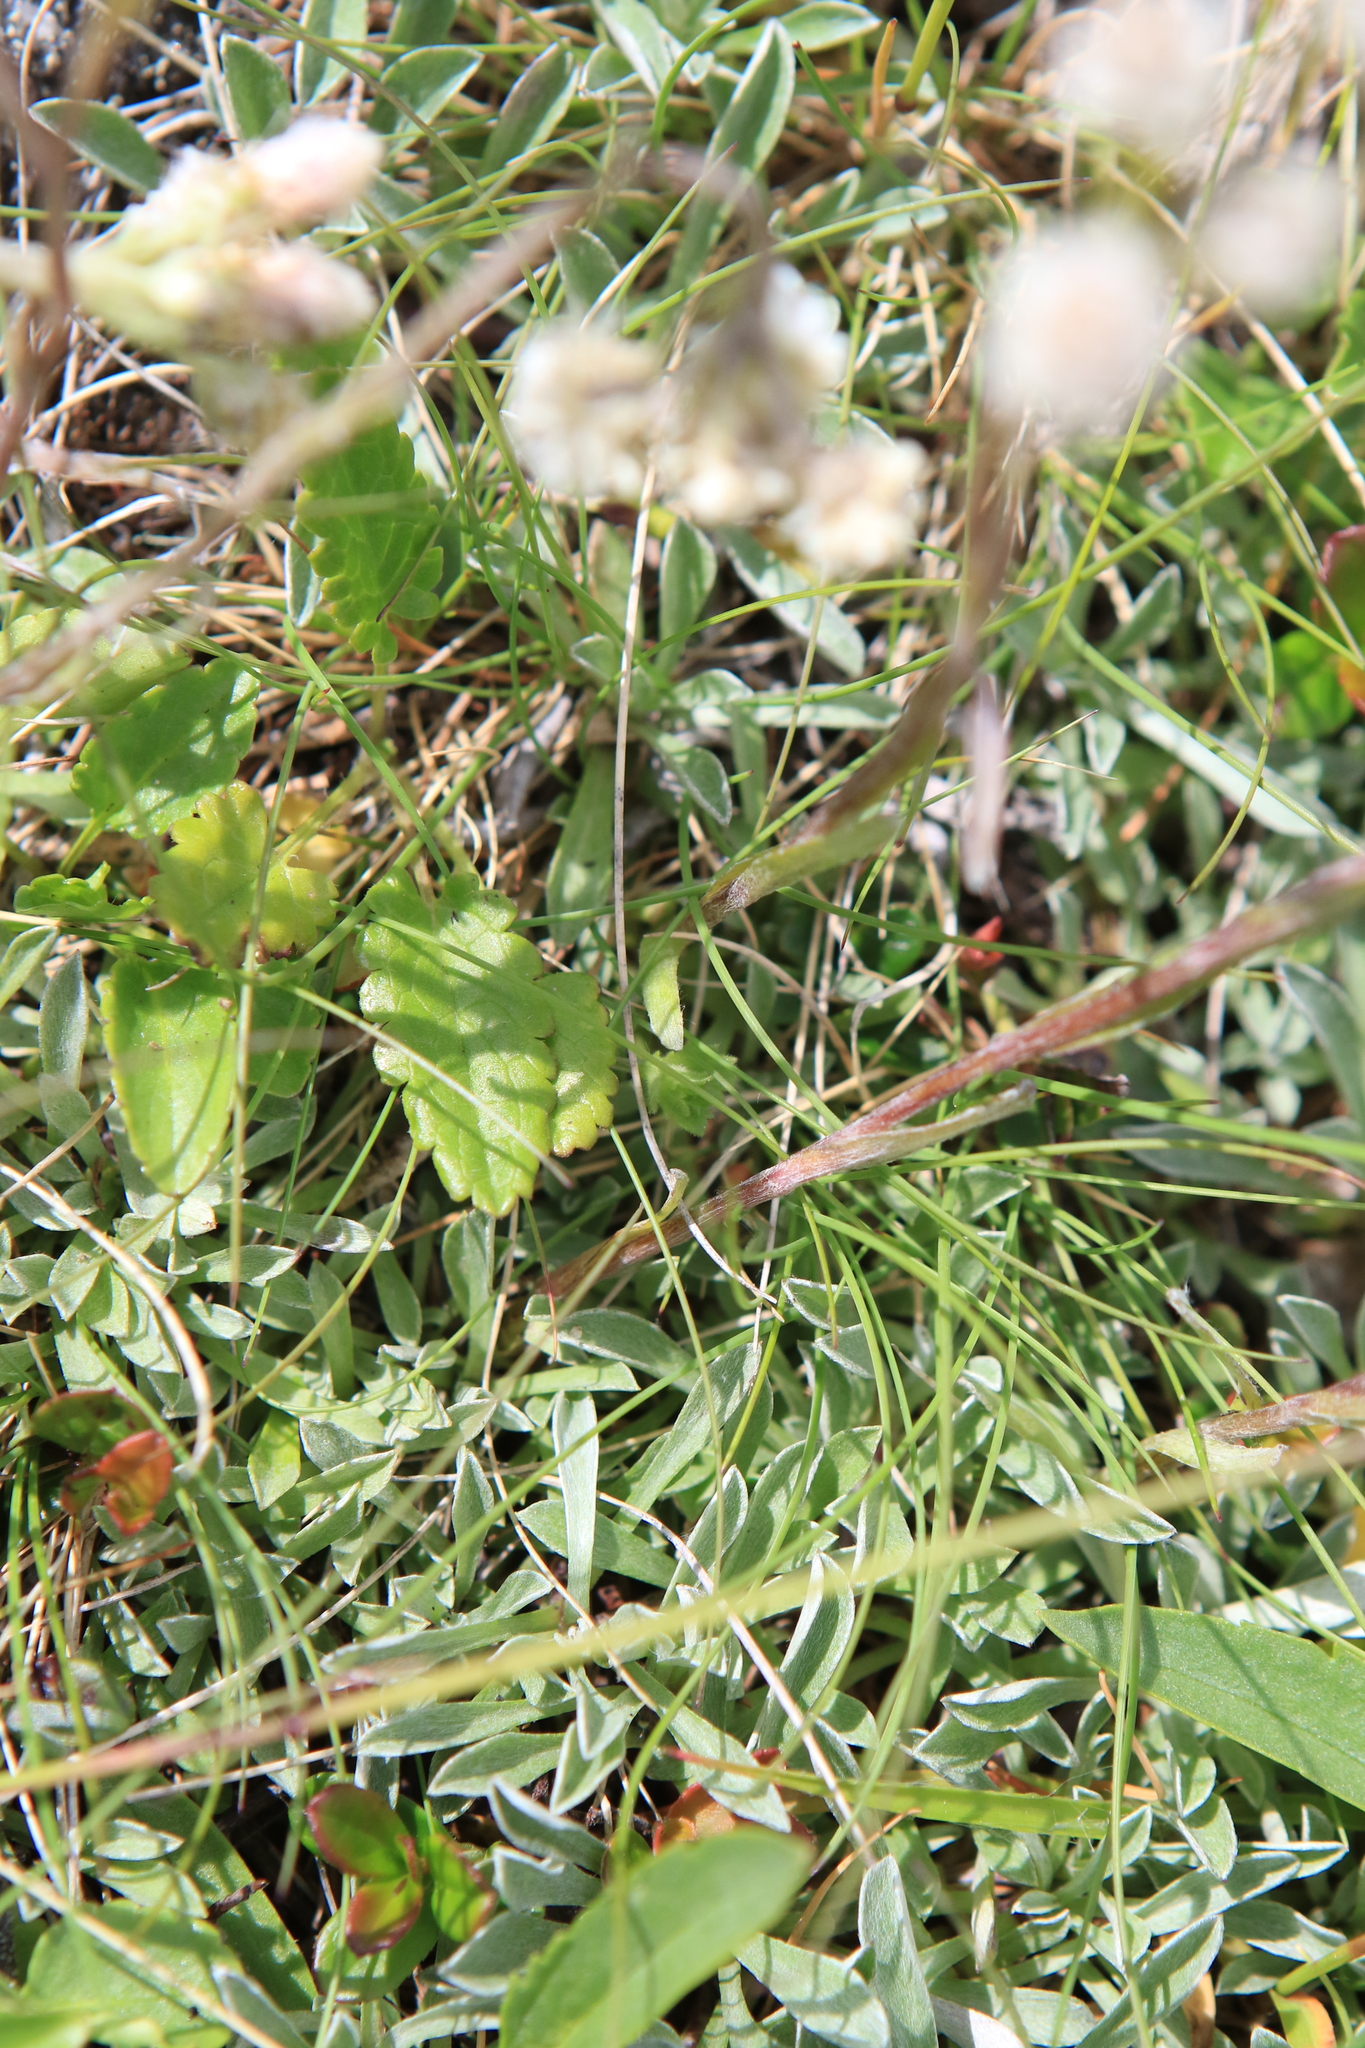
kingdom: Plantae
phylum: Tracheophyta
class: Magnoliopsida
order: Asterales
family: Asteraceae
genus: Antennaria
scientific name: Antennaria dioica
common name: Mountain everlasting
